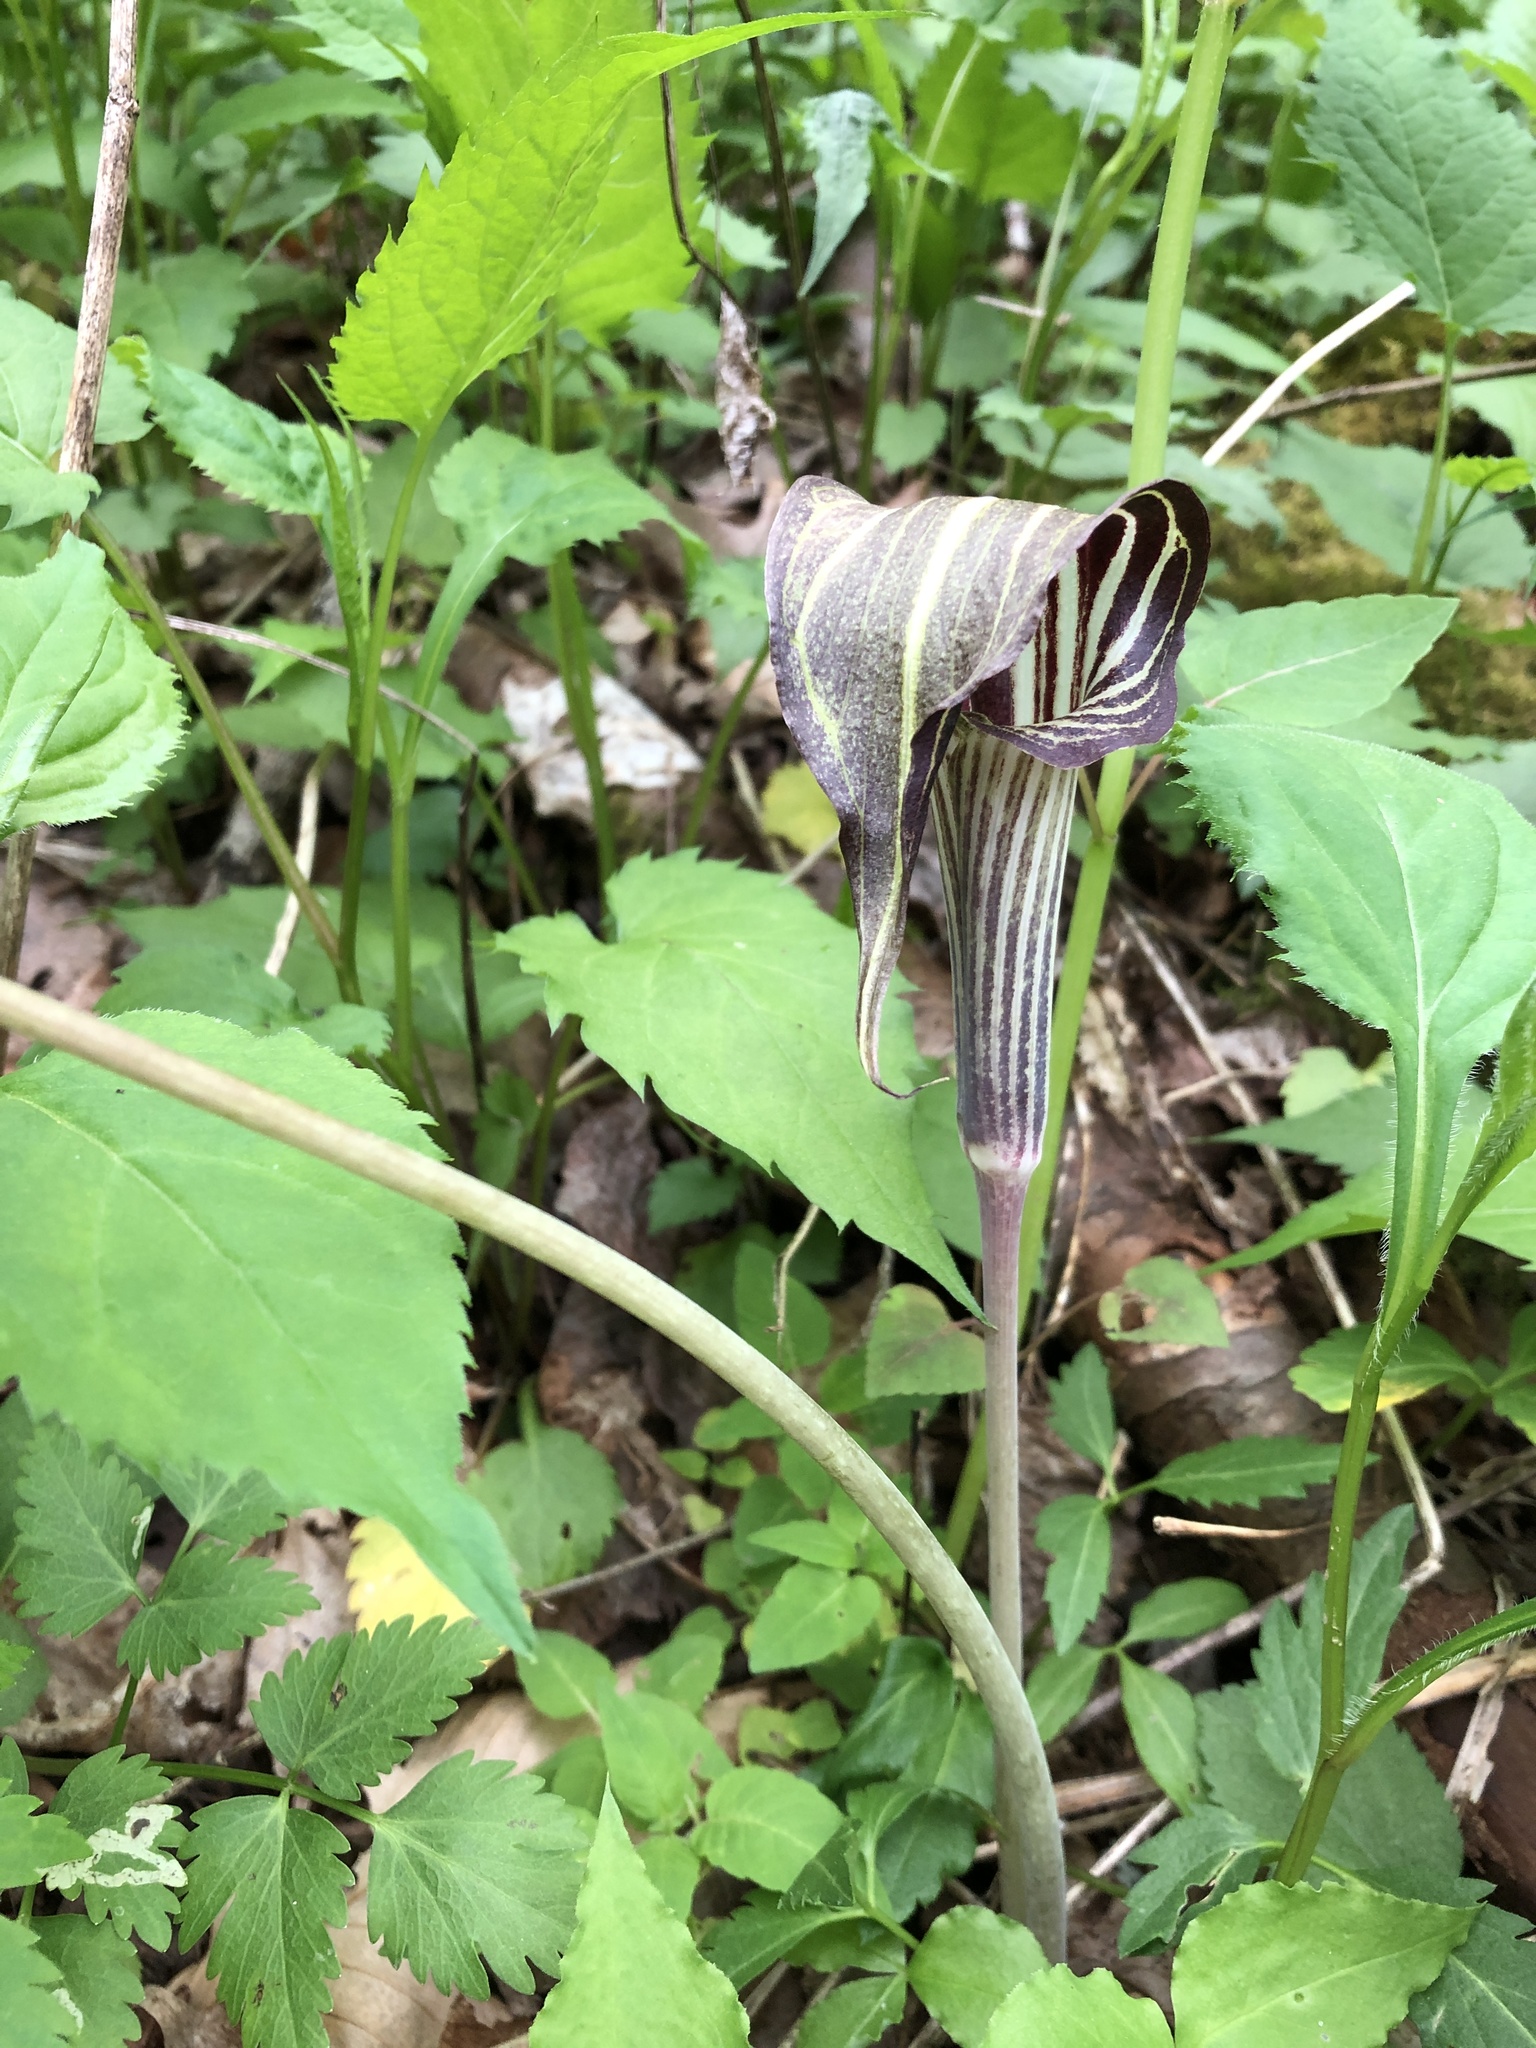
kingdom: Plantae
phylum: Tracheophyta
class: Liliopsida
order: Alismatales
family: Araceae
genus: Arisaema
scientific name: Arisaema triphyllum
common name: Jack-in-the-pulpit
